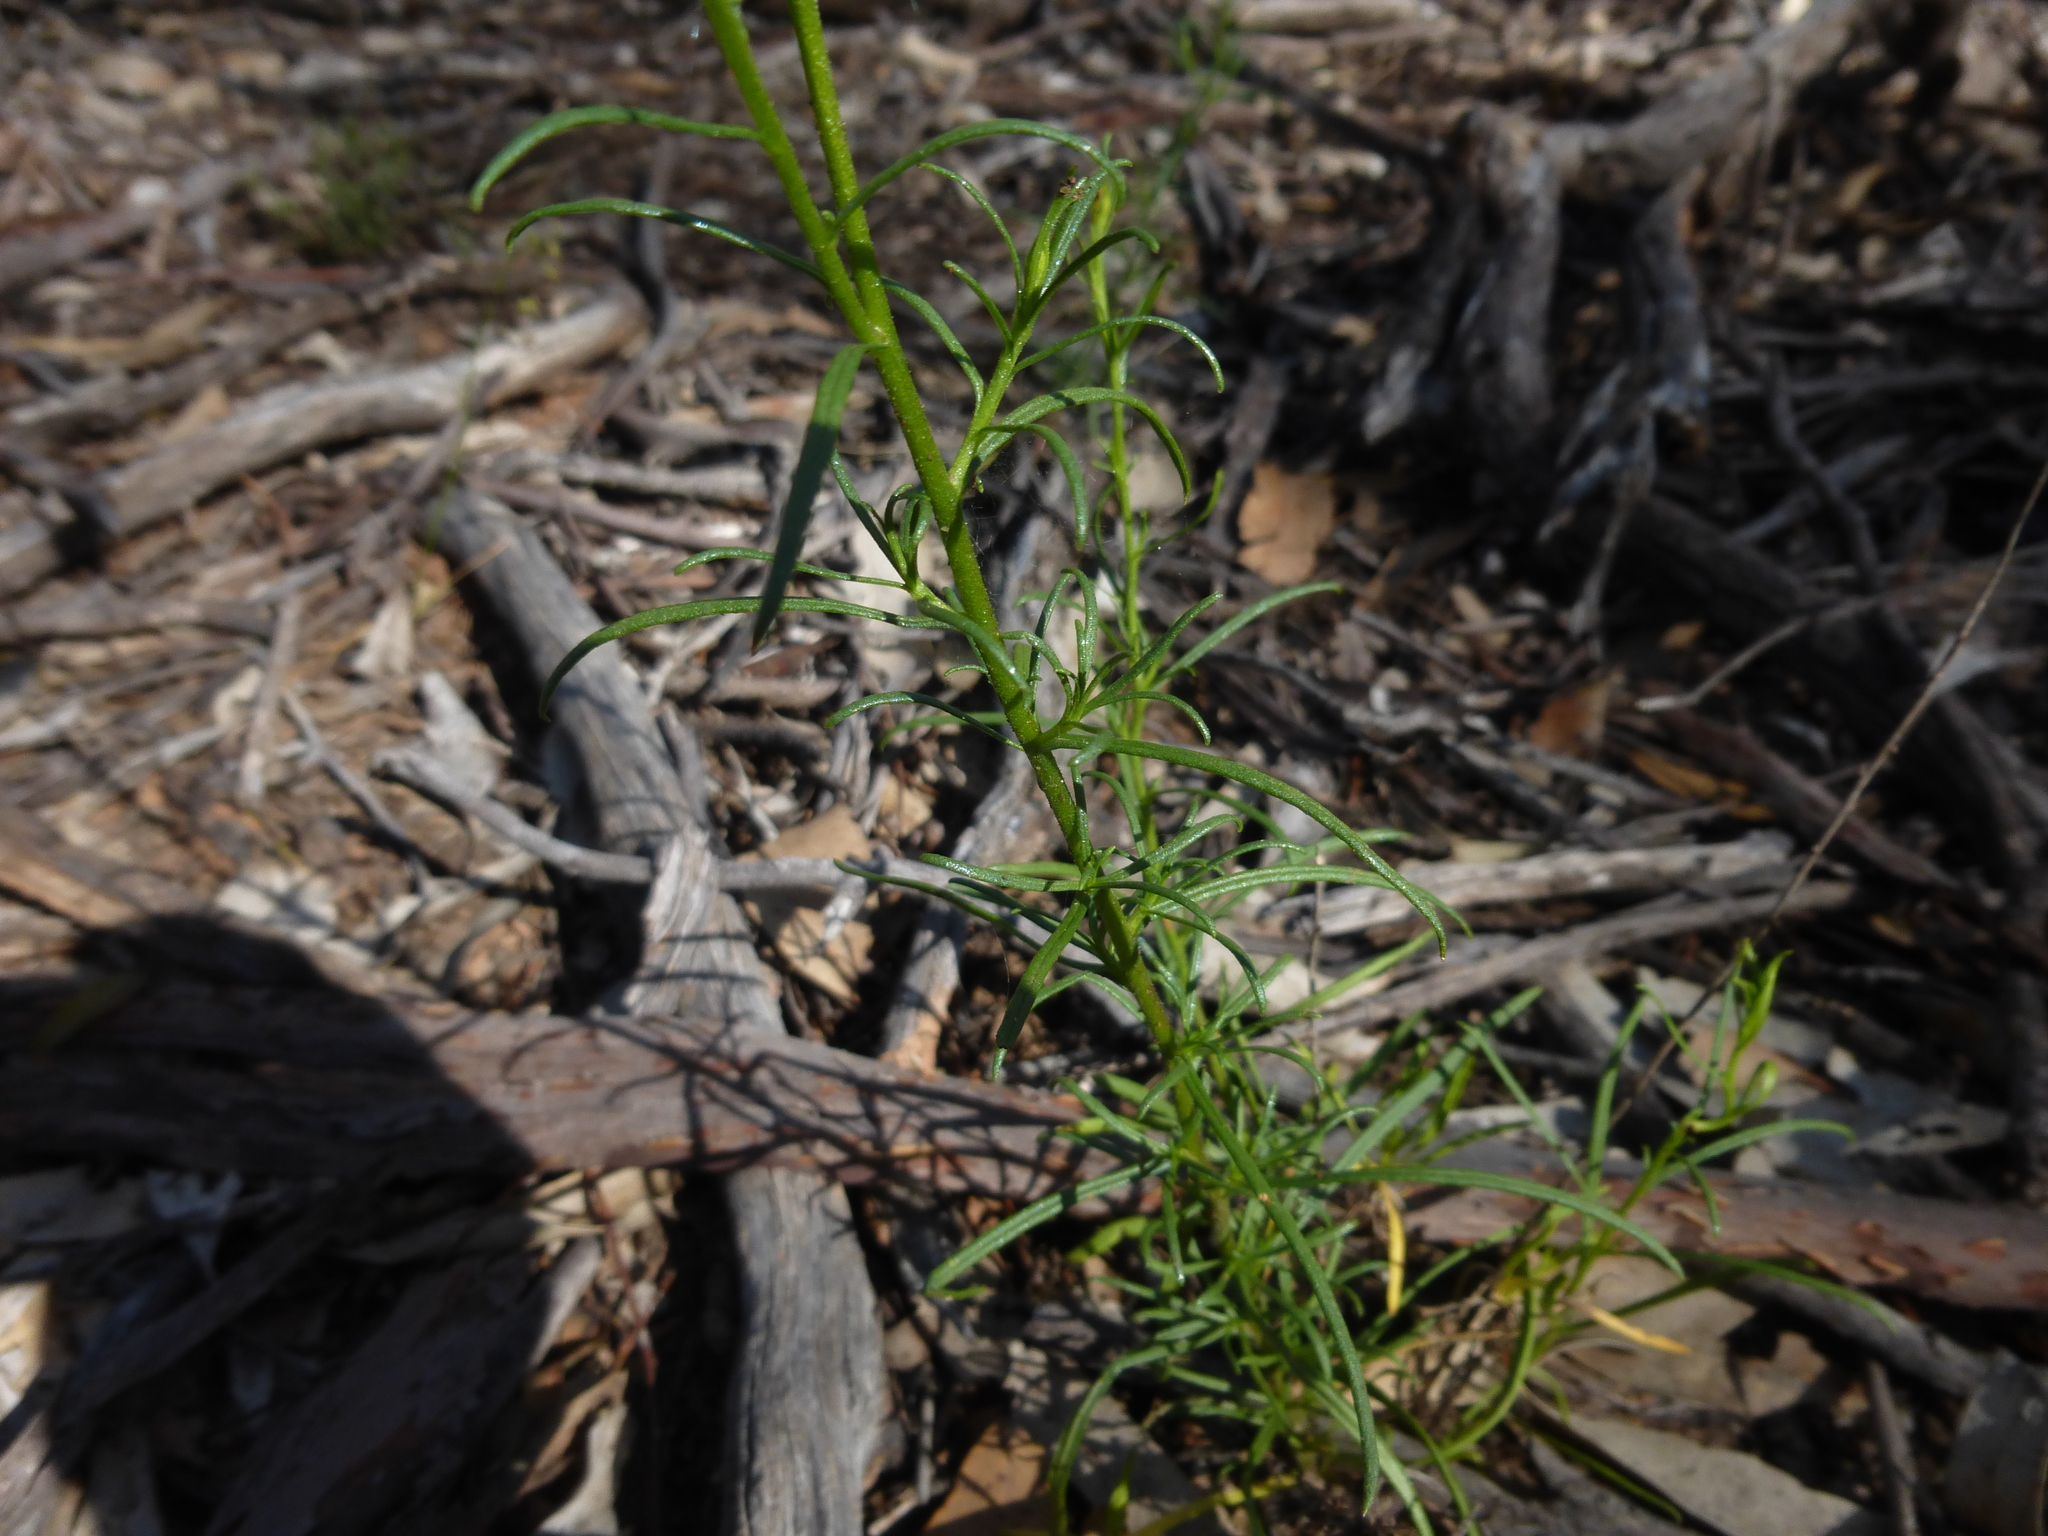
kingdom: Plantae
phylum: Tracheophyta
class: Magnoliopsida
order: Asterales
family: Asteraceae
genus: Xerochrysum
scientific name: Xerochrysum viscosum
